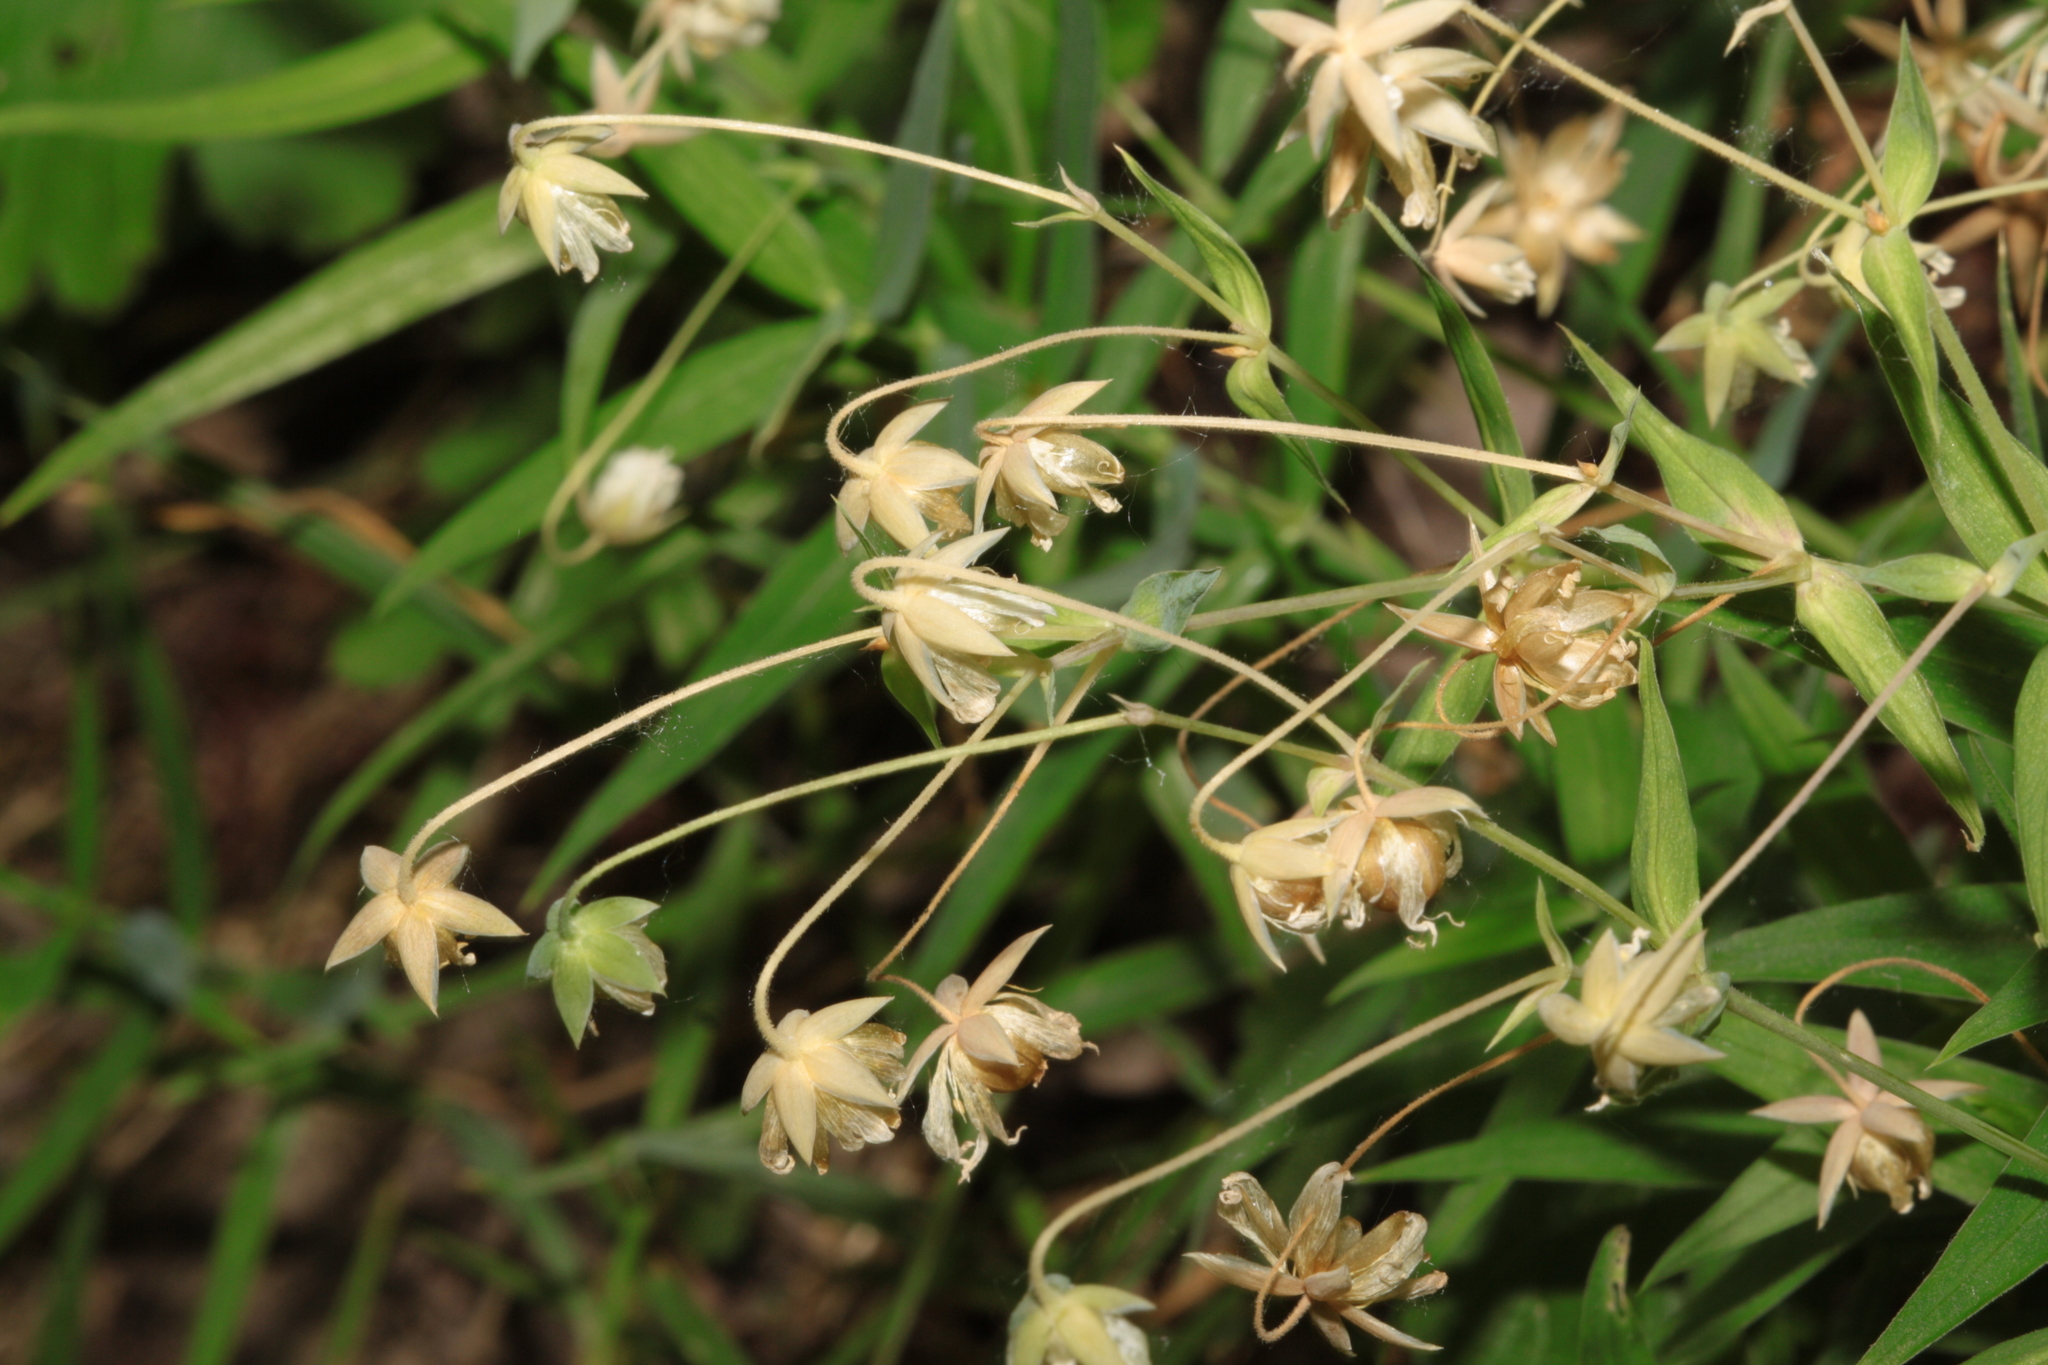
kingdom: Plantae
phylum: Tracheophyta
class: Magnoliopsida
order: Caryophyllales
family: Caryophyllaceae
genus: Rabelera
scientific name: Rabelera holostea
